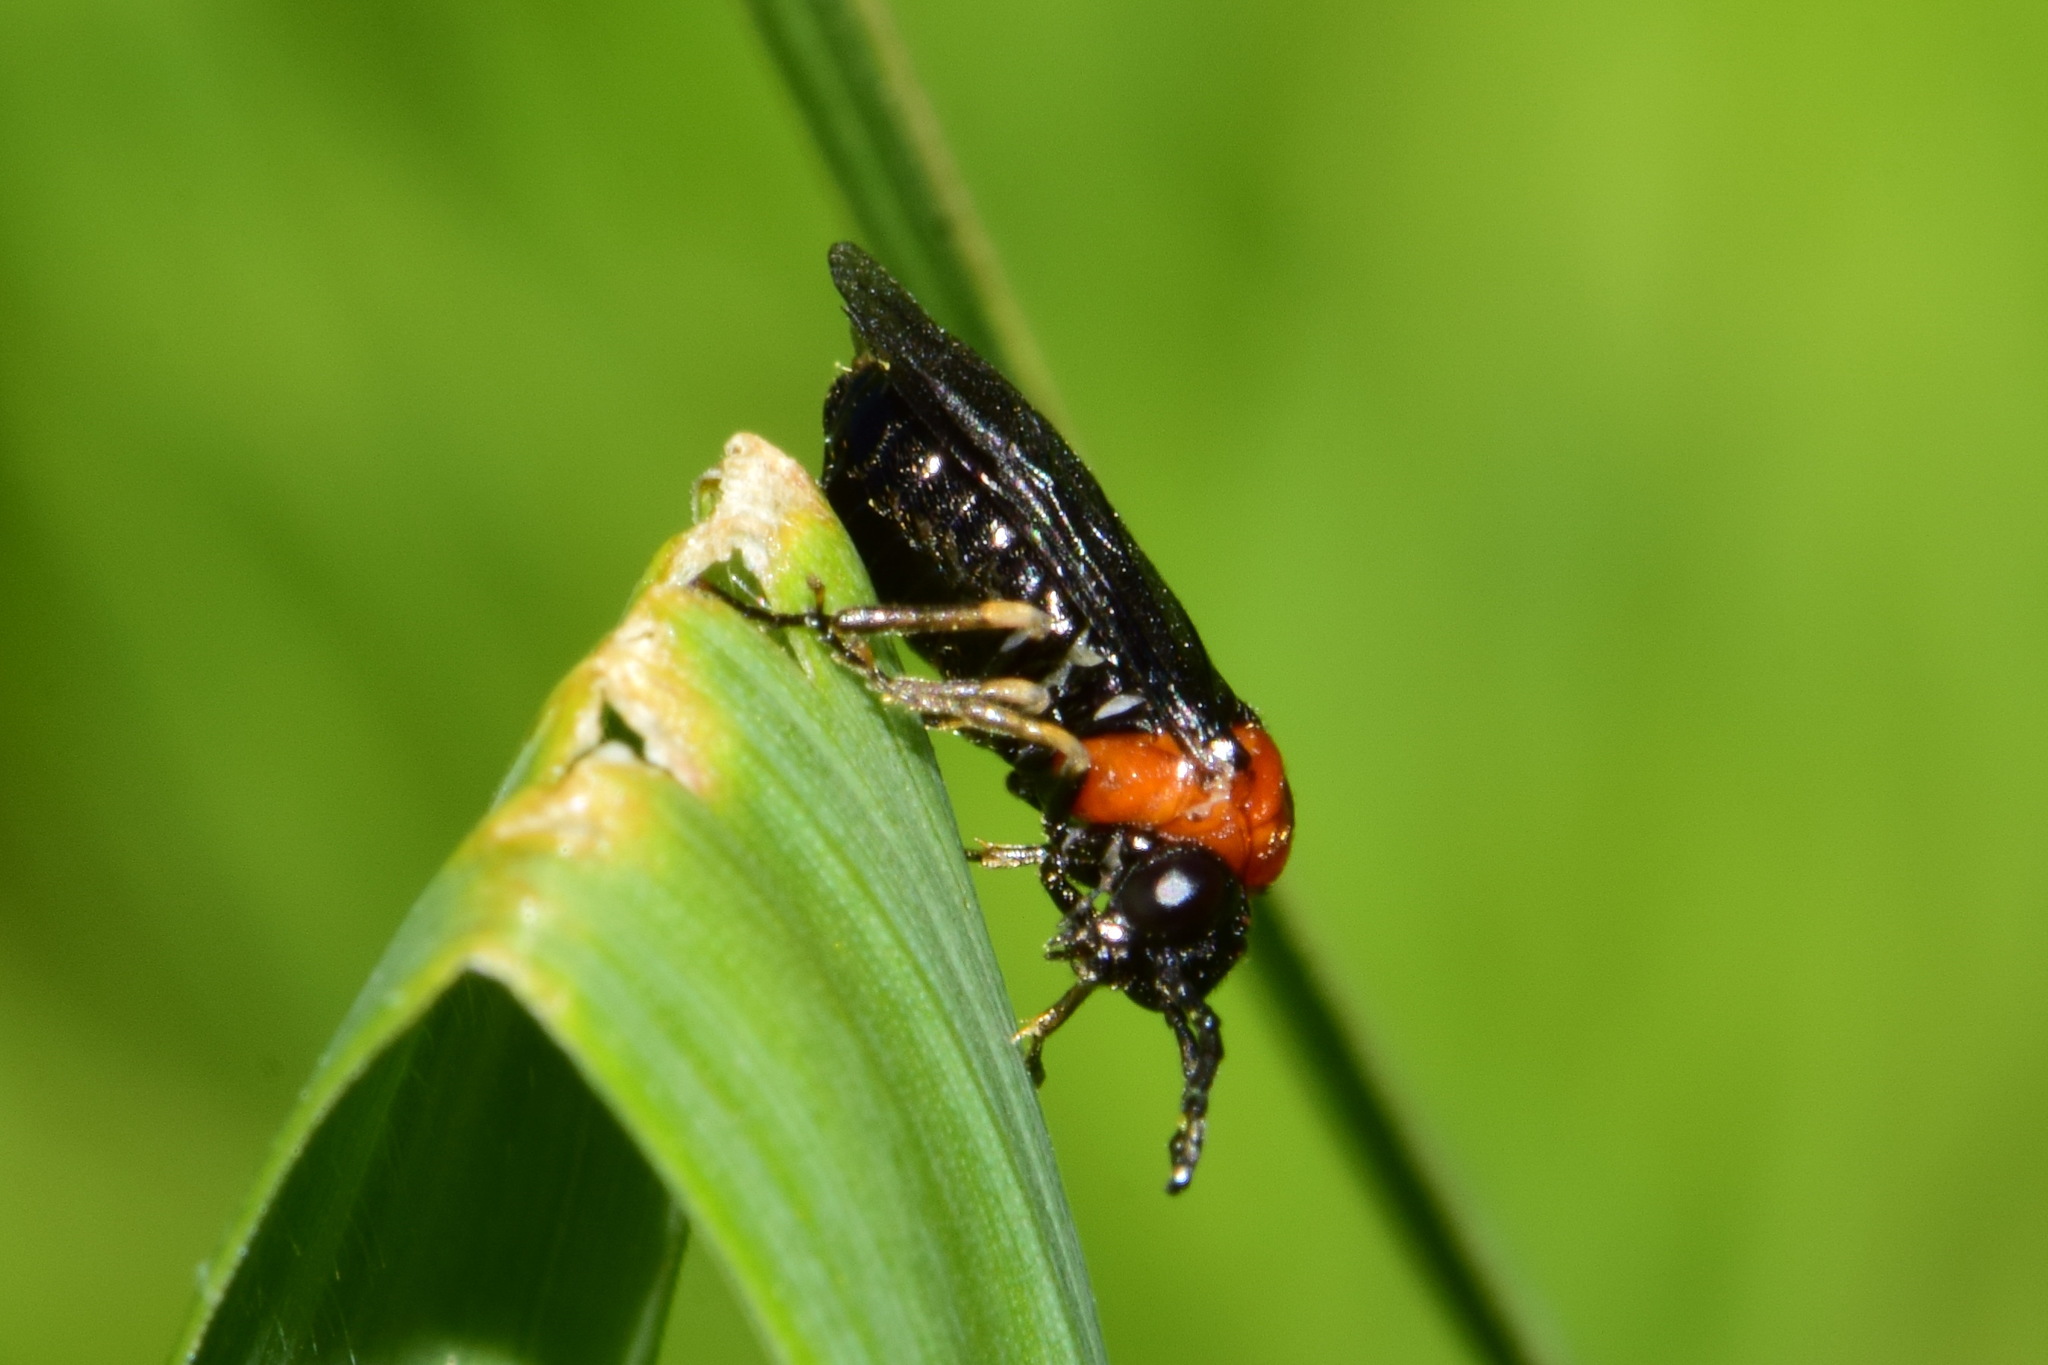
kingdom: Animalia
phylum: Arthropoda
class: Insecta
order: Hymenoptera
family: Tenthredinidae
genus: Eutomostethus
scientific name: Eutomostethus ephippium
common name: Tenthredid wasp
